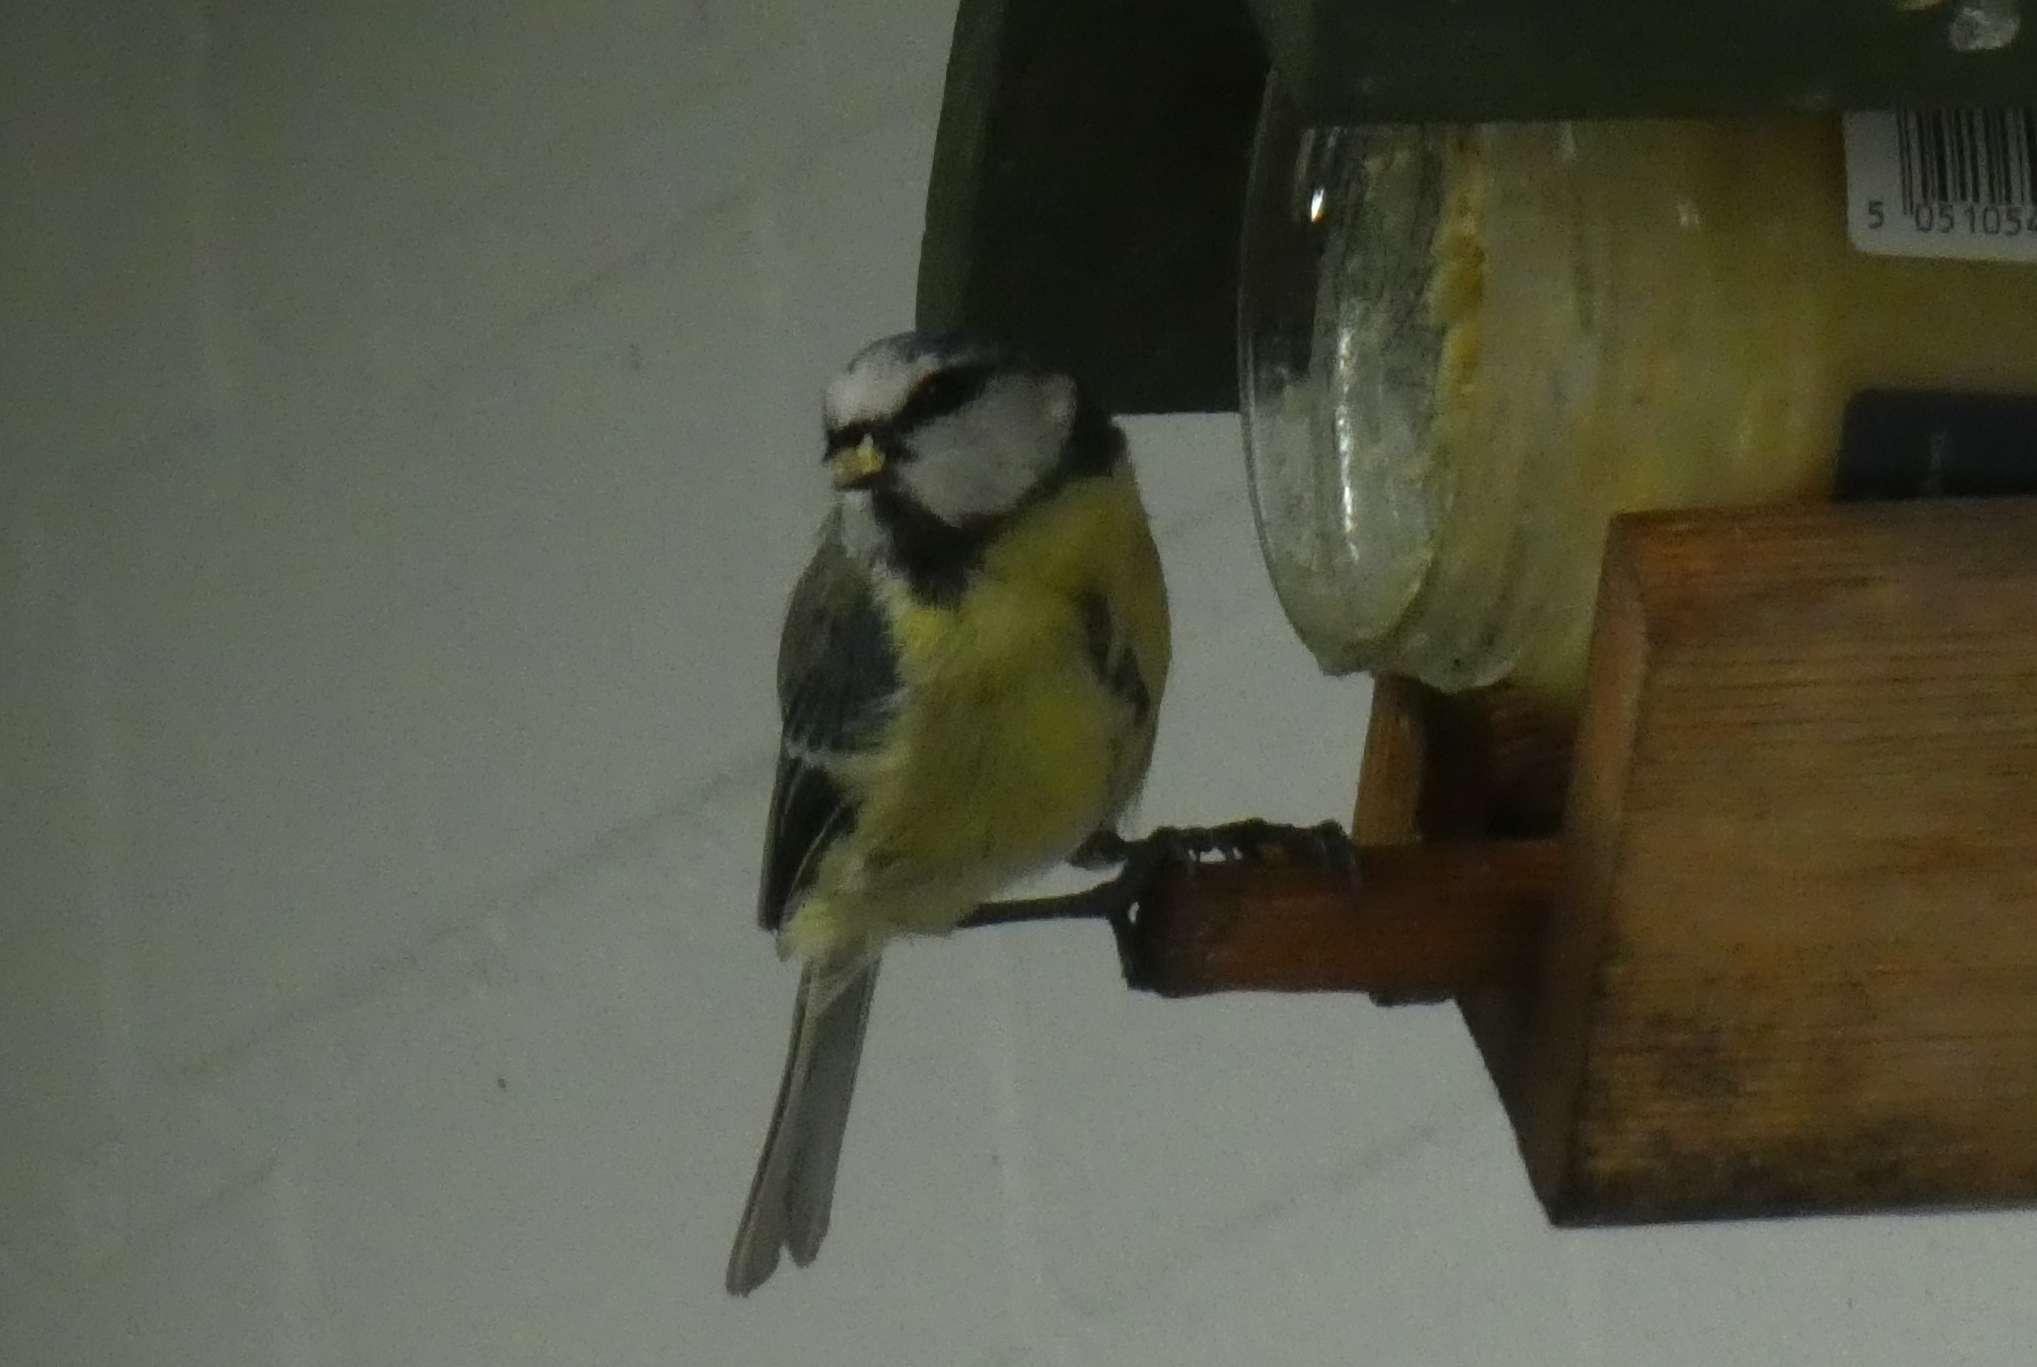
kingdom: Animalia
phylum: Chordata
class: Aves
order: Passeriformes
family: Paridae
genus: Cyanistes
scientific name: Cyanistes caeruleus
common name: Eurasian blue tit
